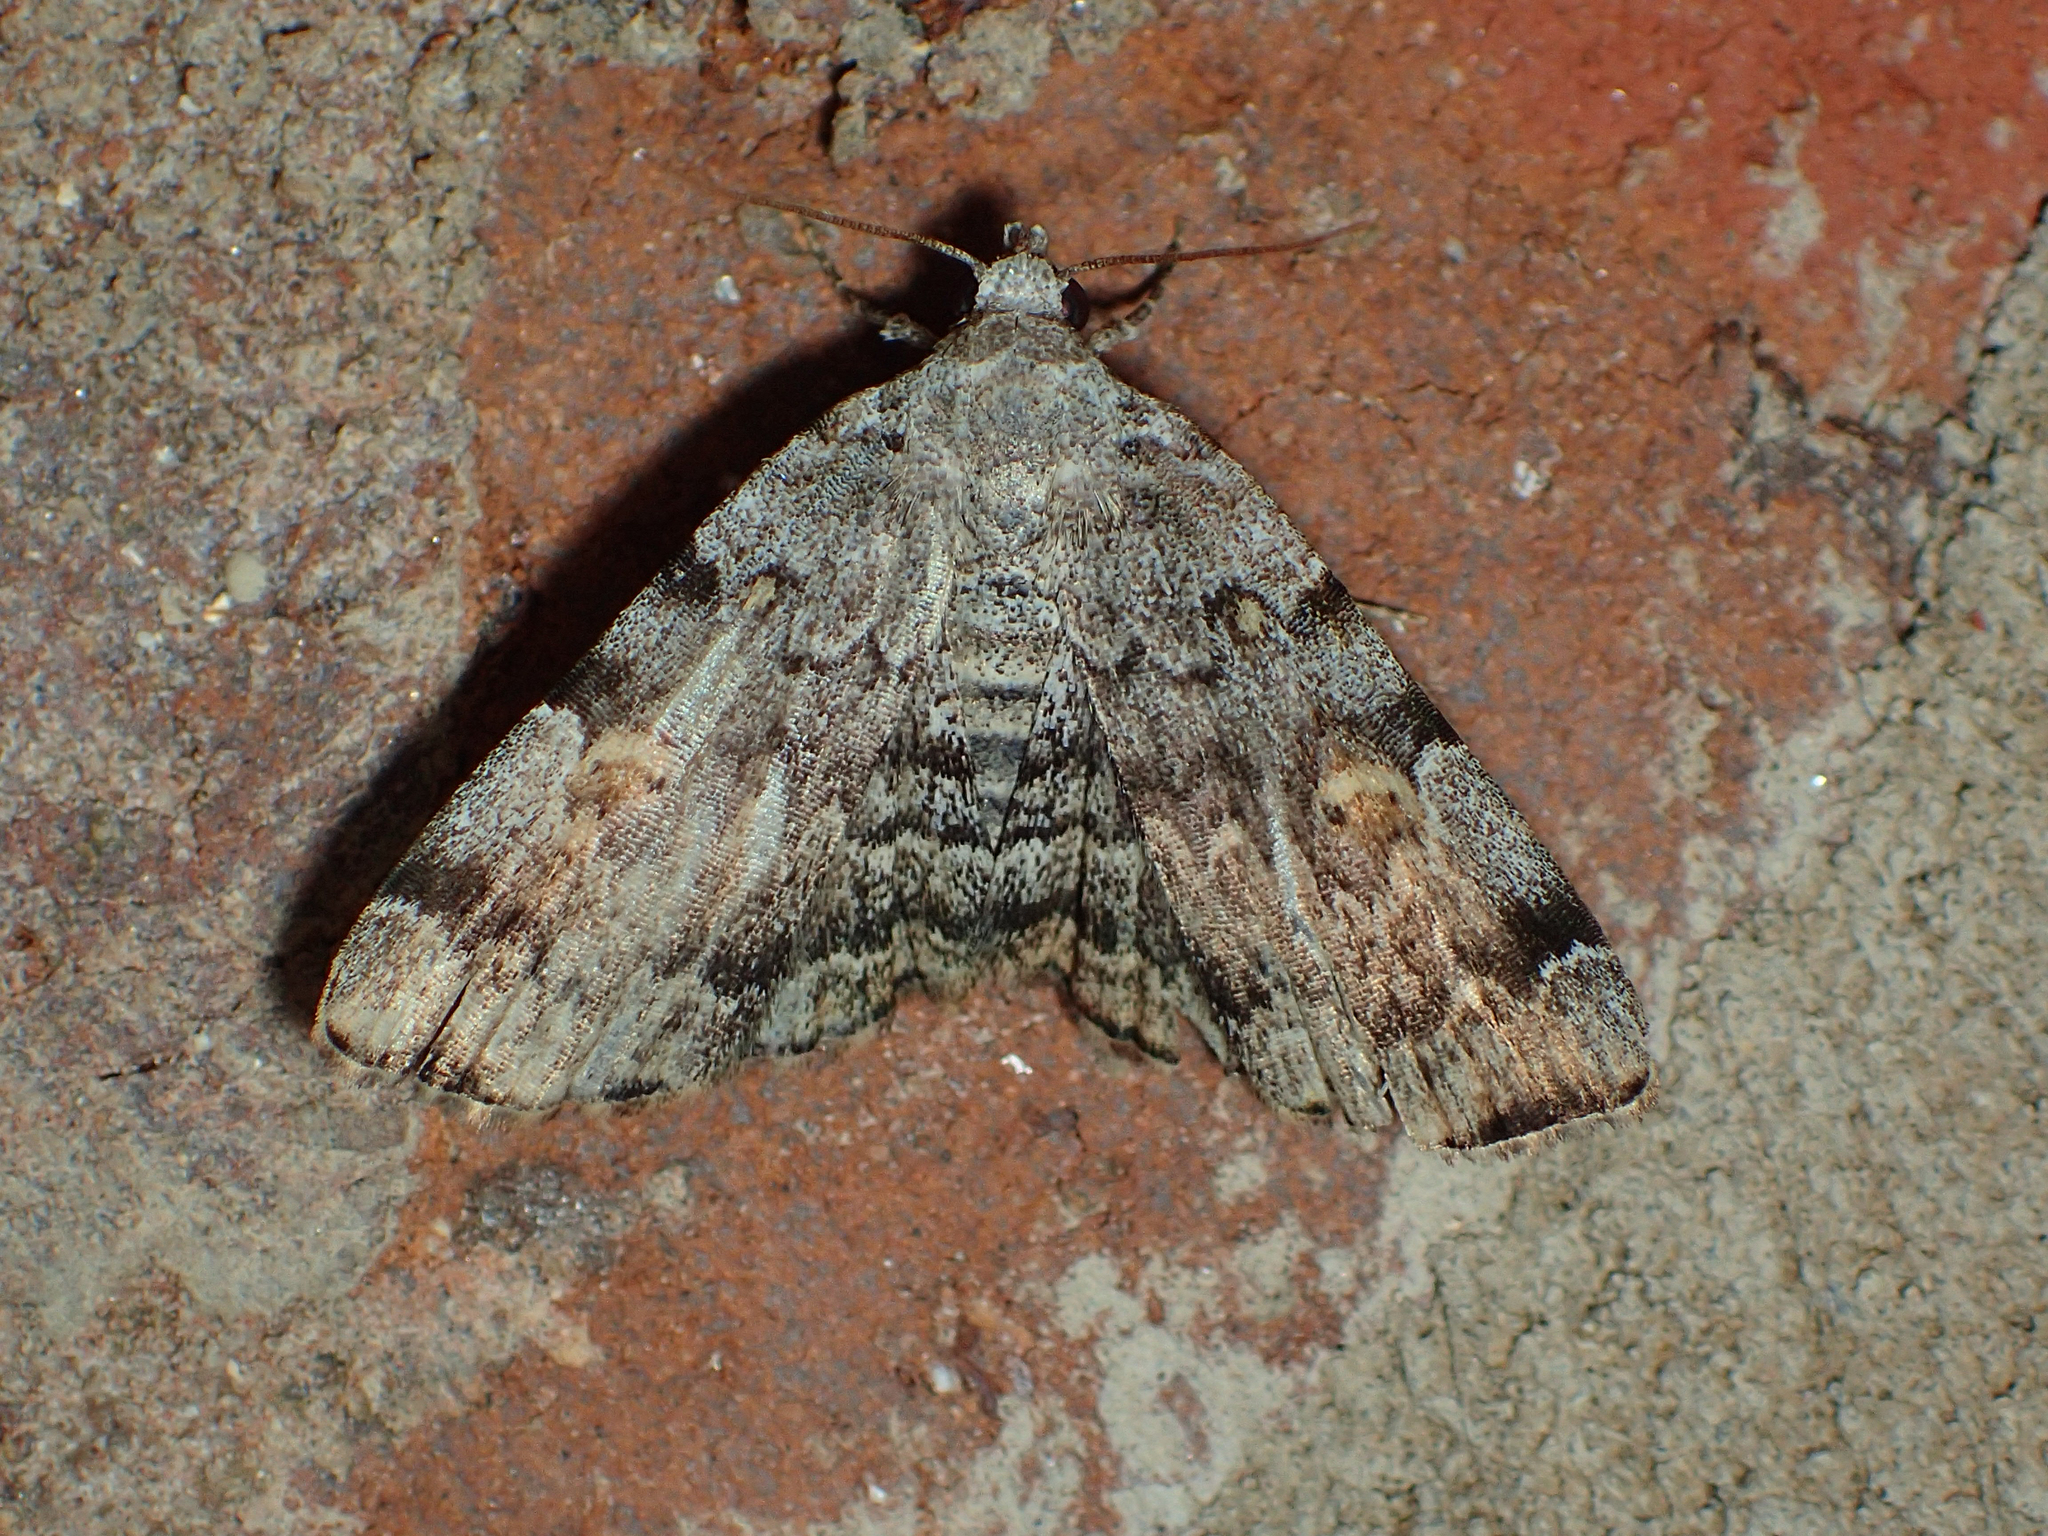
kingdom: Animalia
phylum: Arthropoda
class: Insecta
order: Lepidoptera
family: Erebidae
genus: Idia
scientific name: Idia americalis
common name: American idia moth
